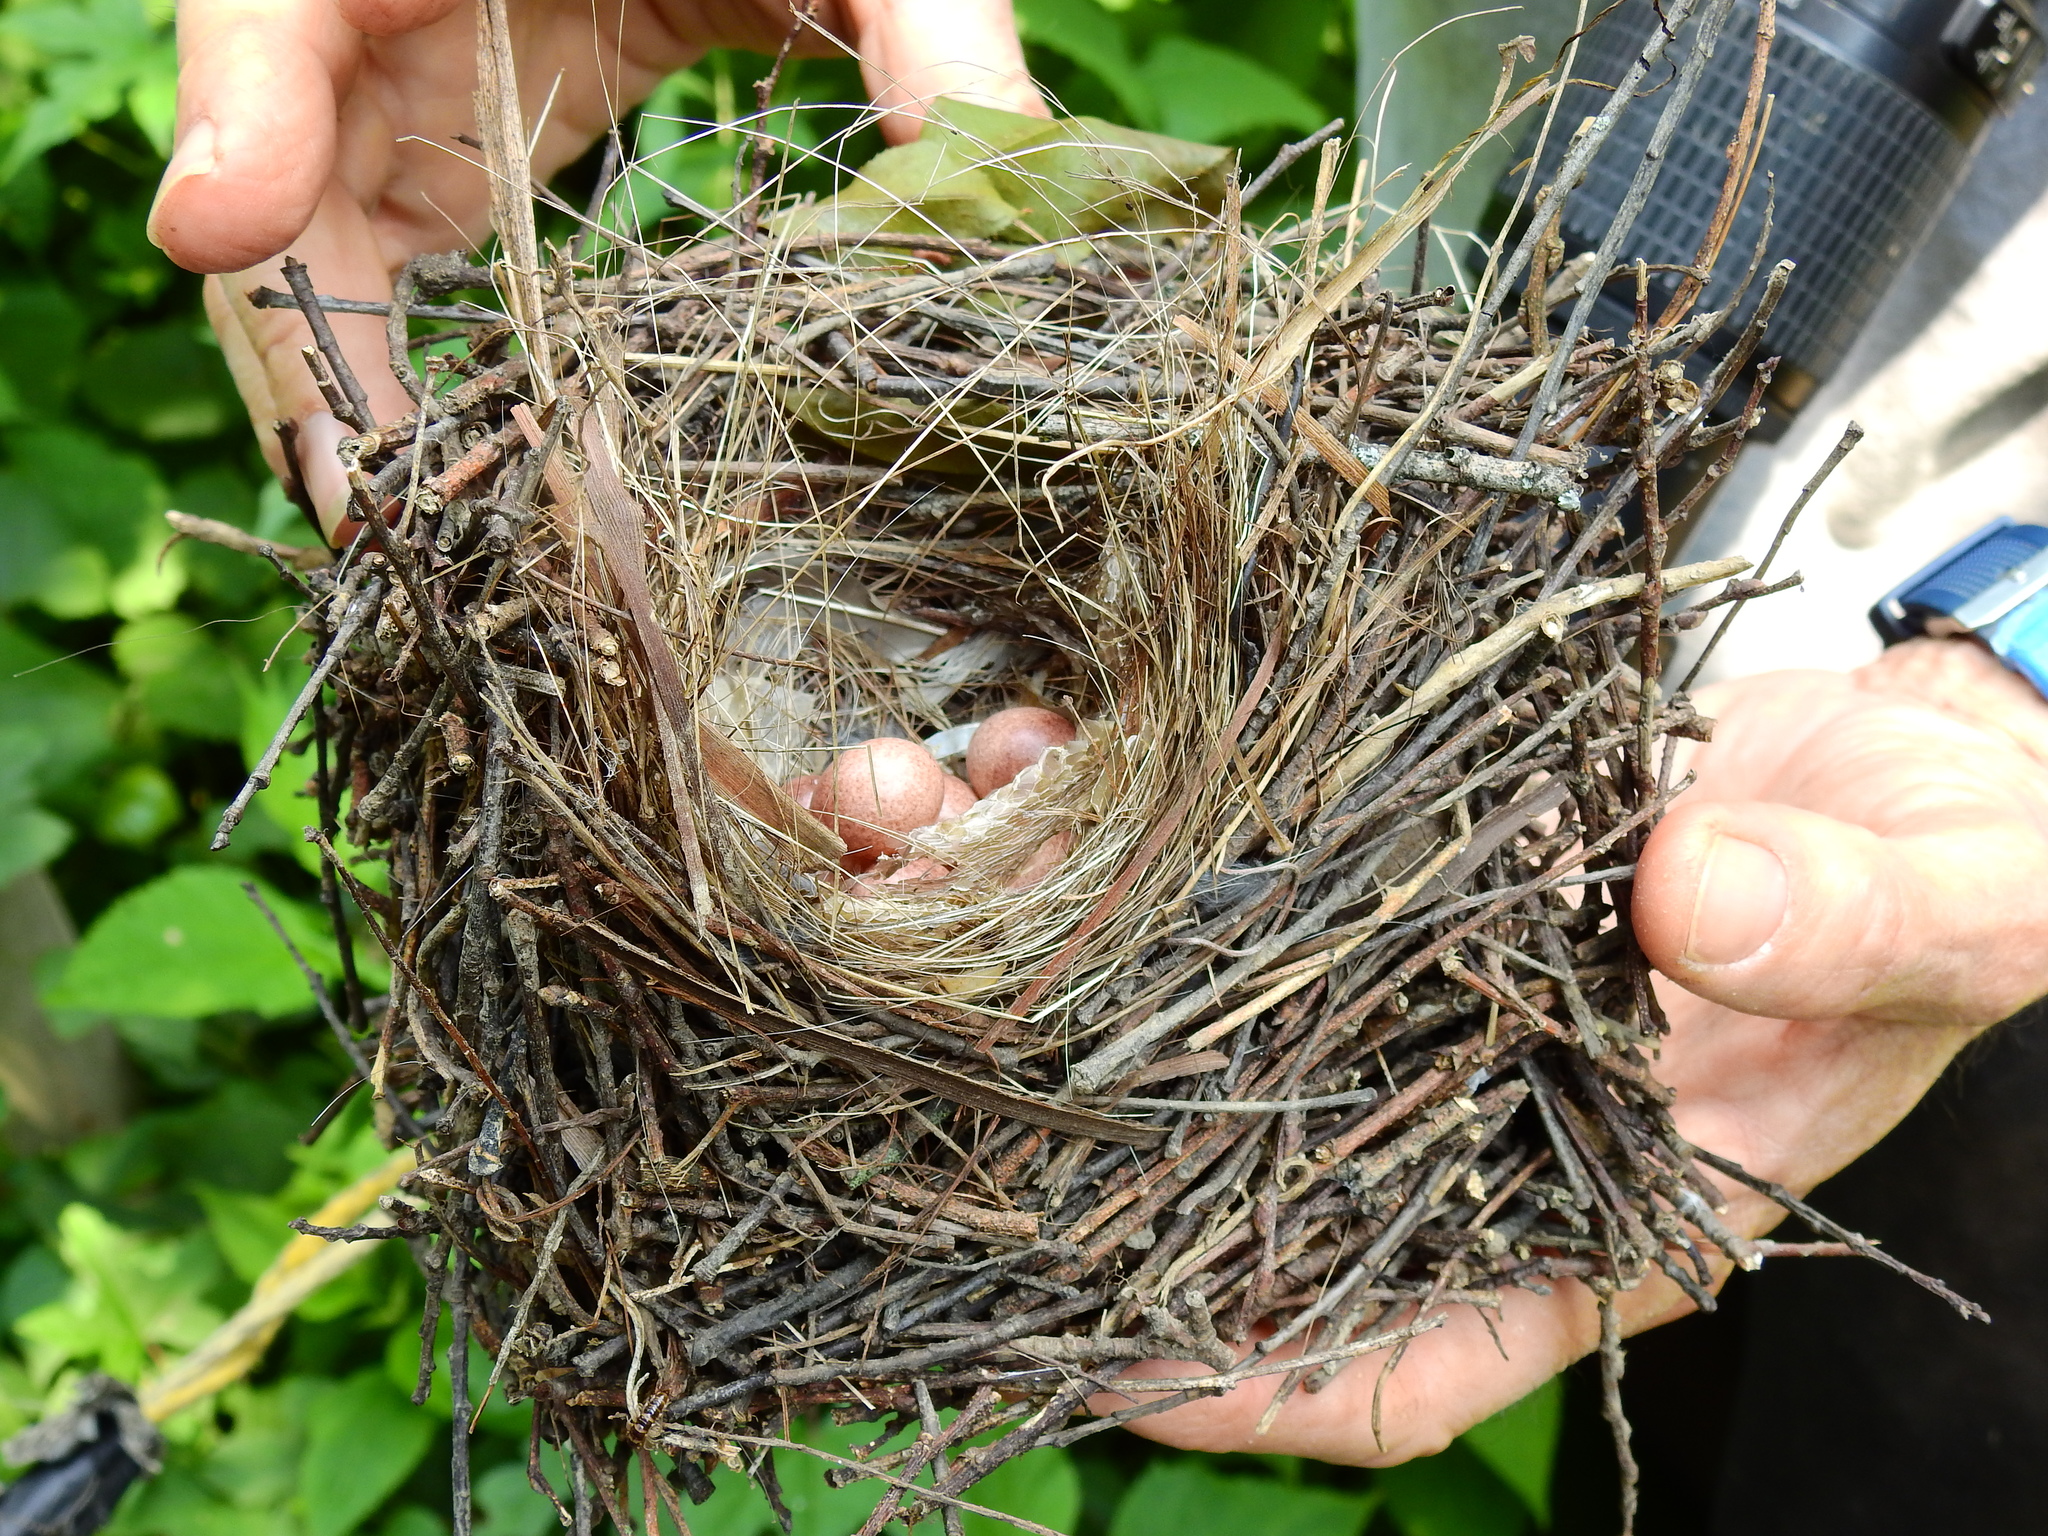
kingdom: Animalia
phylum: Chordata
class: Aves
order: Passeriformes
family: Troglodytidae
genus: Troglodytes
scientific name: Troglodytes aedon
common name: House wren
